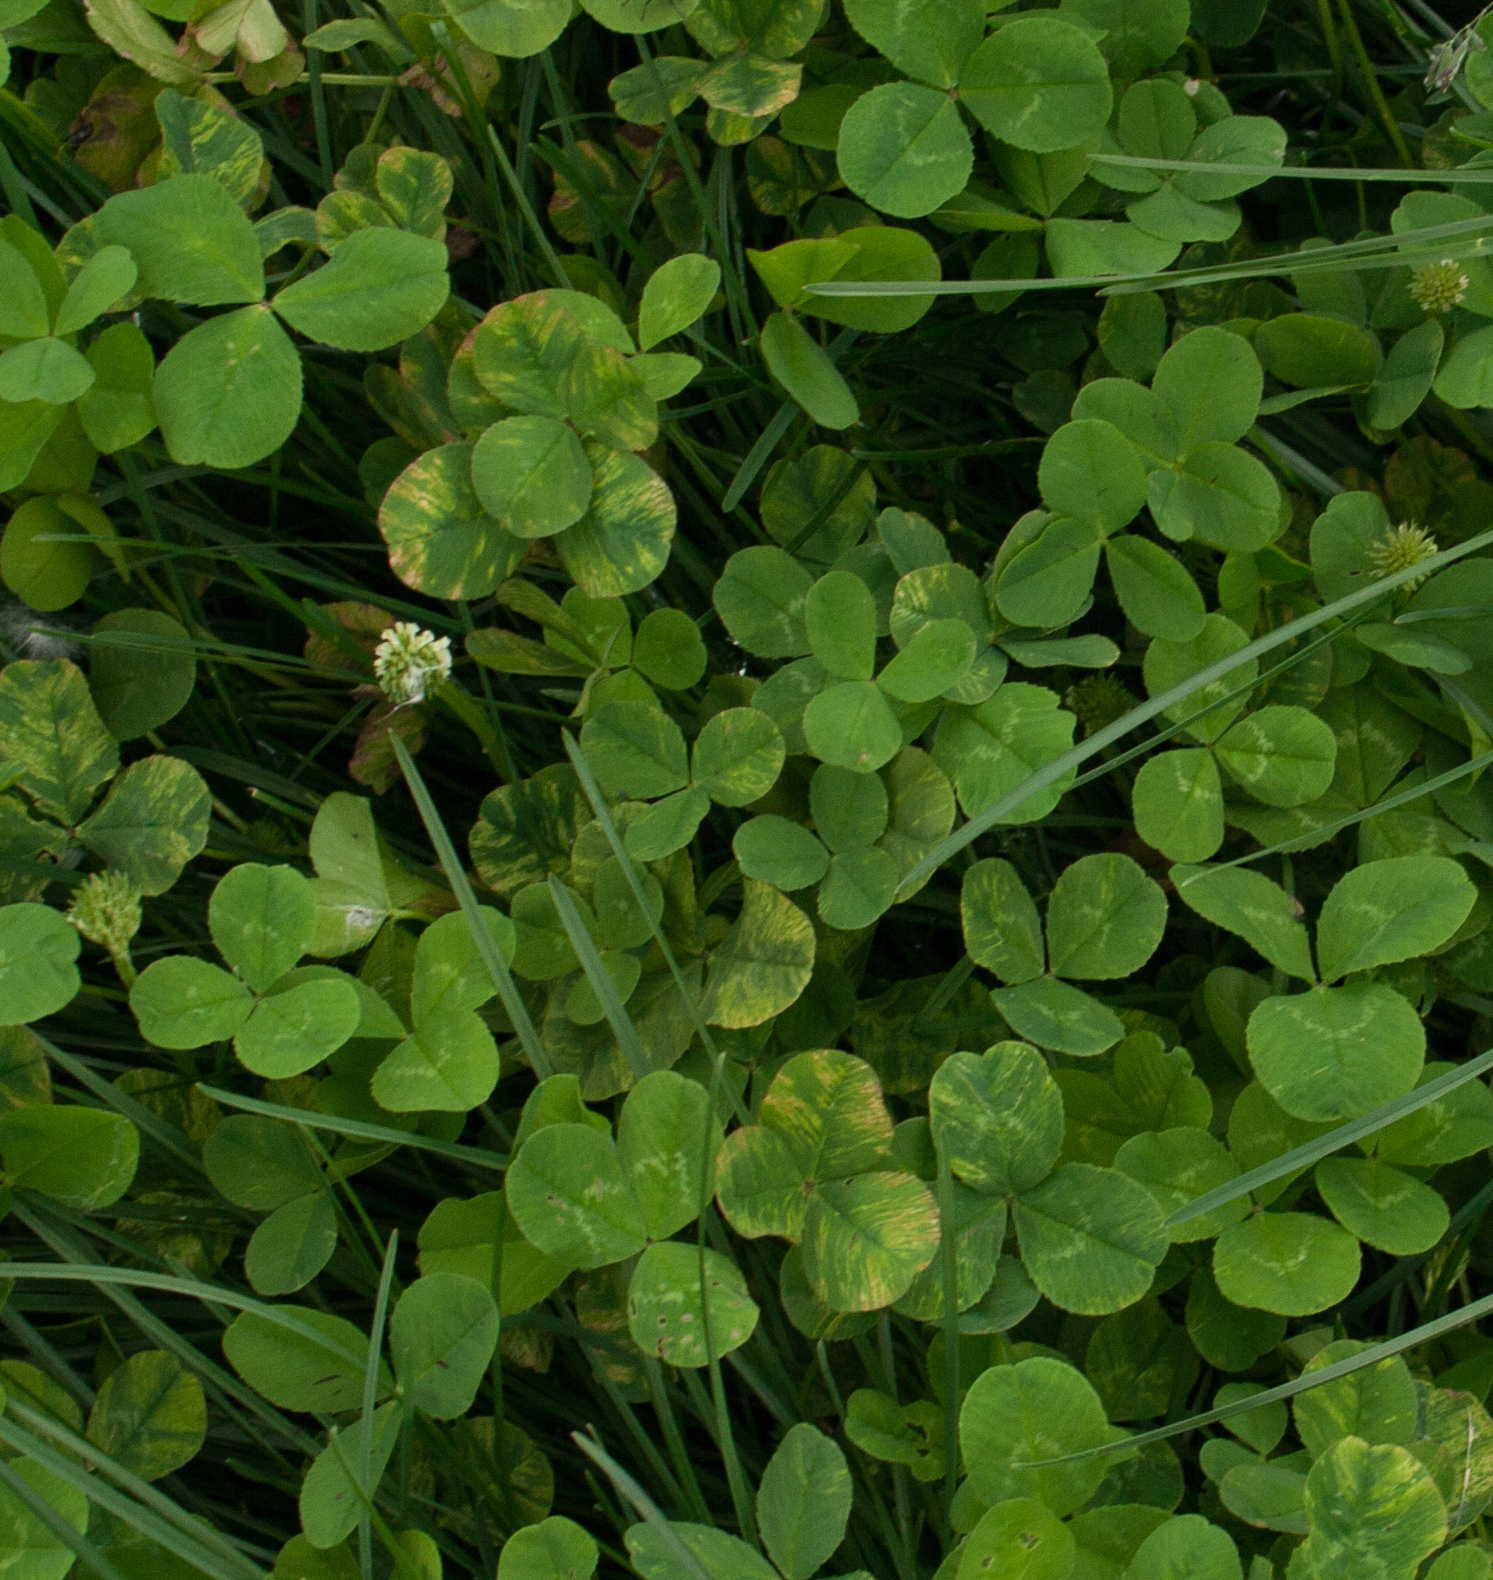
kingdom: Plantae
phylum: Tracheophyta
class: Magnoliopsida
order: Fabales
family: Fabaceae
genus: Trifolium
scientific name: Trifolium repens
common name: White clover
